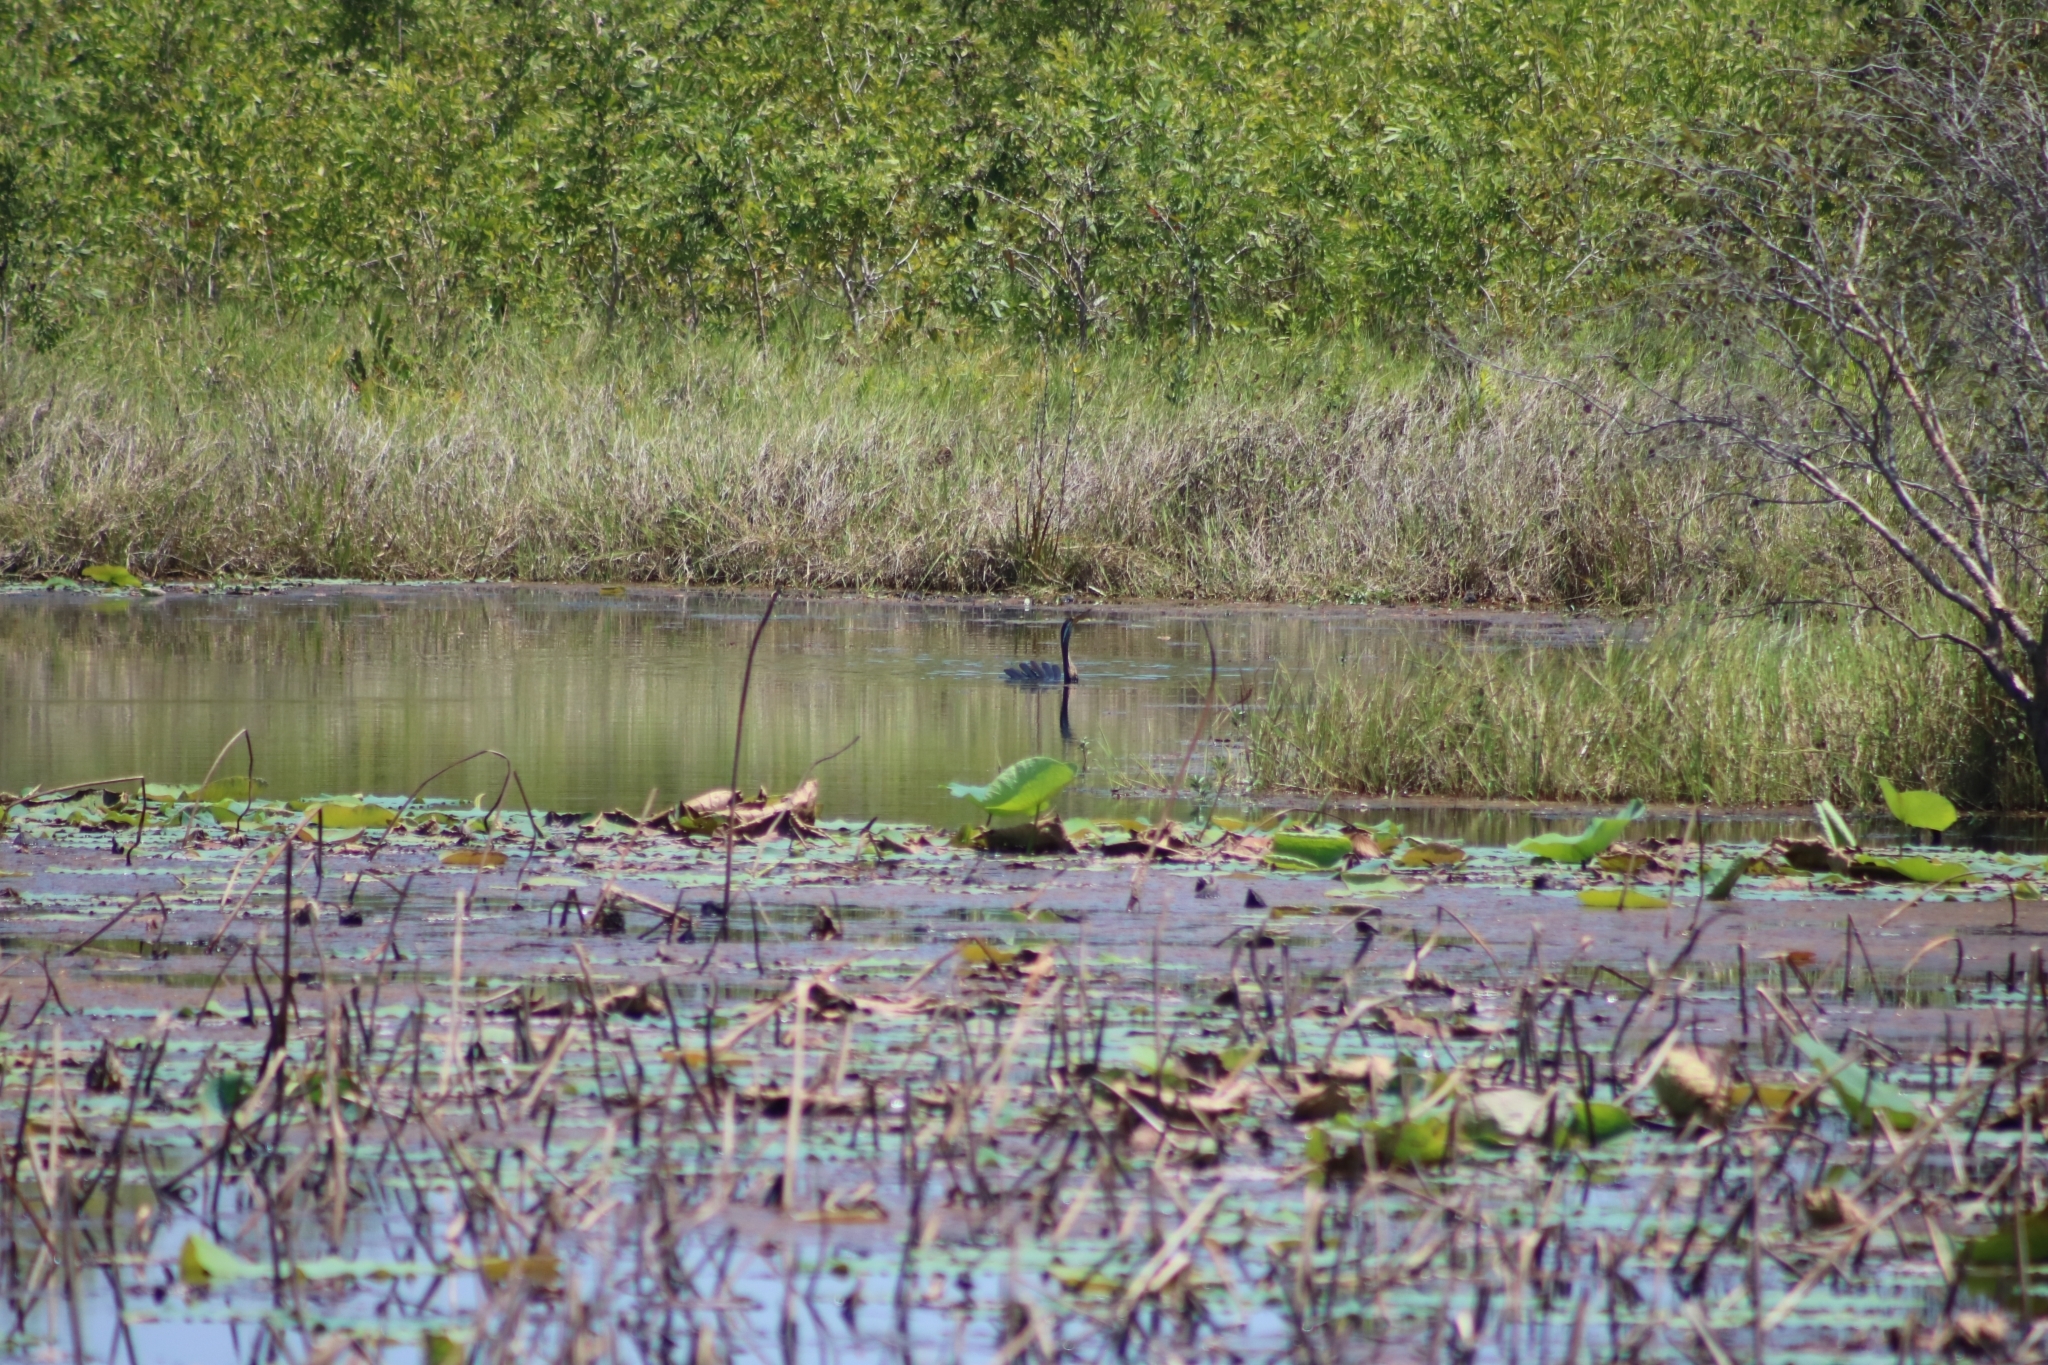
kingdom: Animalia
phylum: Chordata
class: Aves
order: Suliformes
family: Anhingidae
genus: Anhinga
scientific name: Anhinga novaehollandiae
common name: Australasian darter
